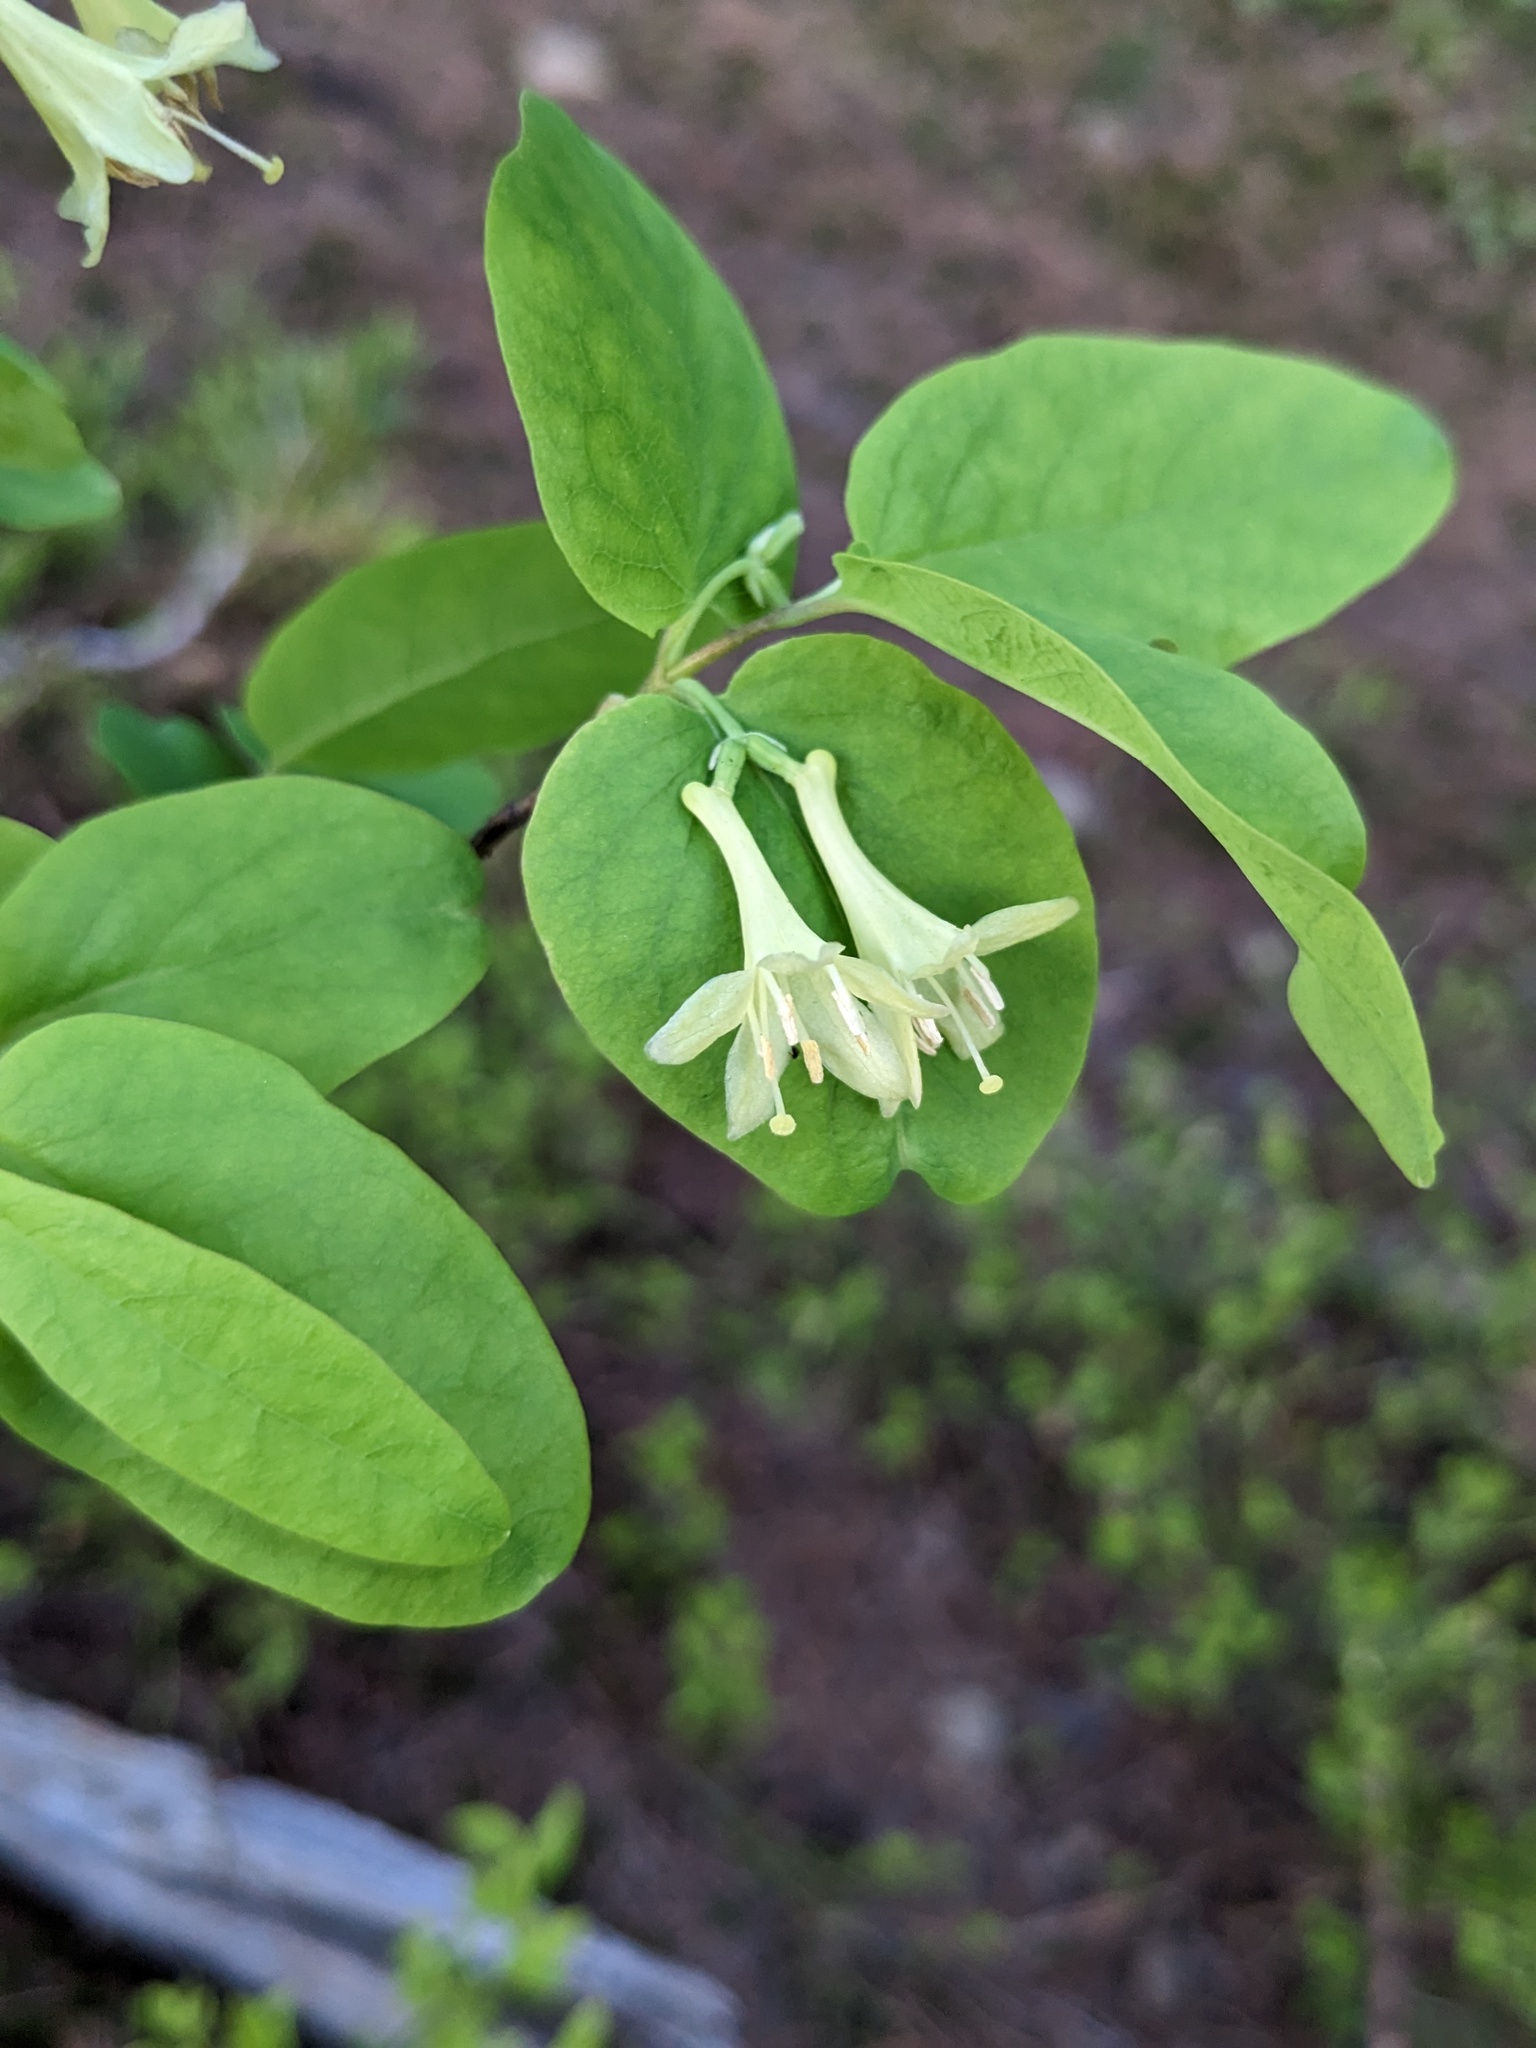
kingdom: Plantae
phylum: Tracheophyta
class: Magnoliopsida
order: Dipsacales
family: Caprifoliaceae
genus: Lonicera
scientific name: Lonicera utahensis
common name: Utah honeysuckle
